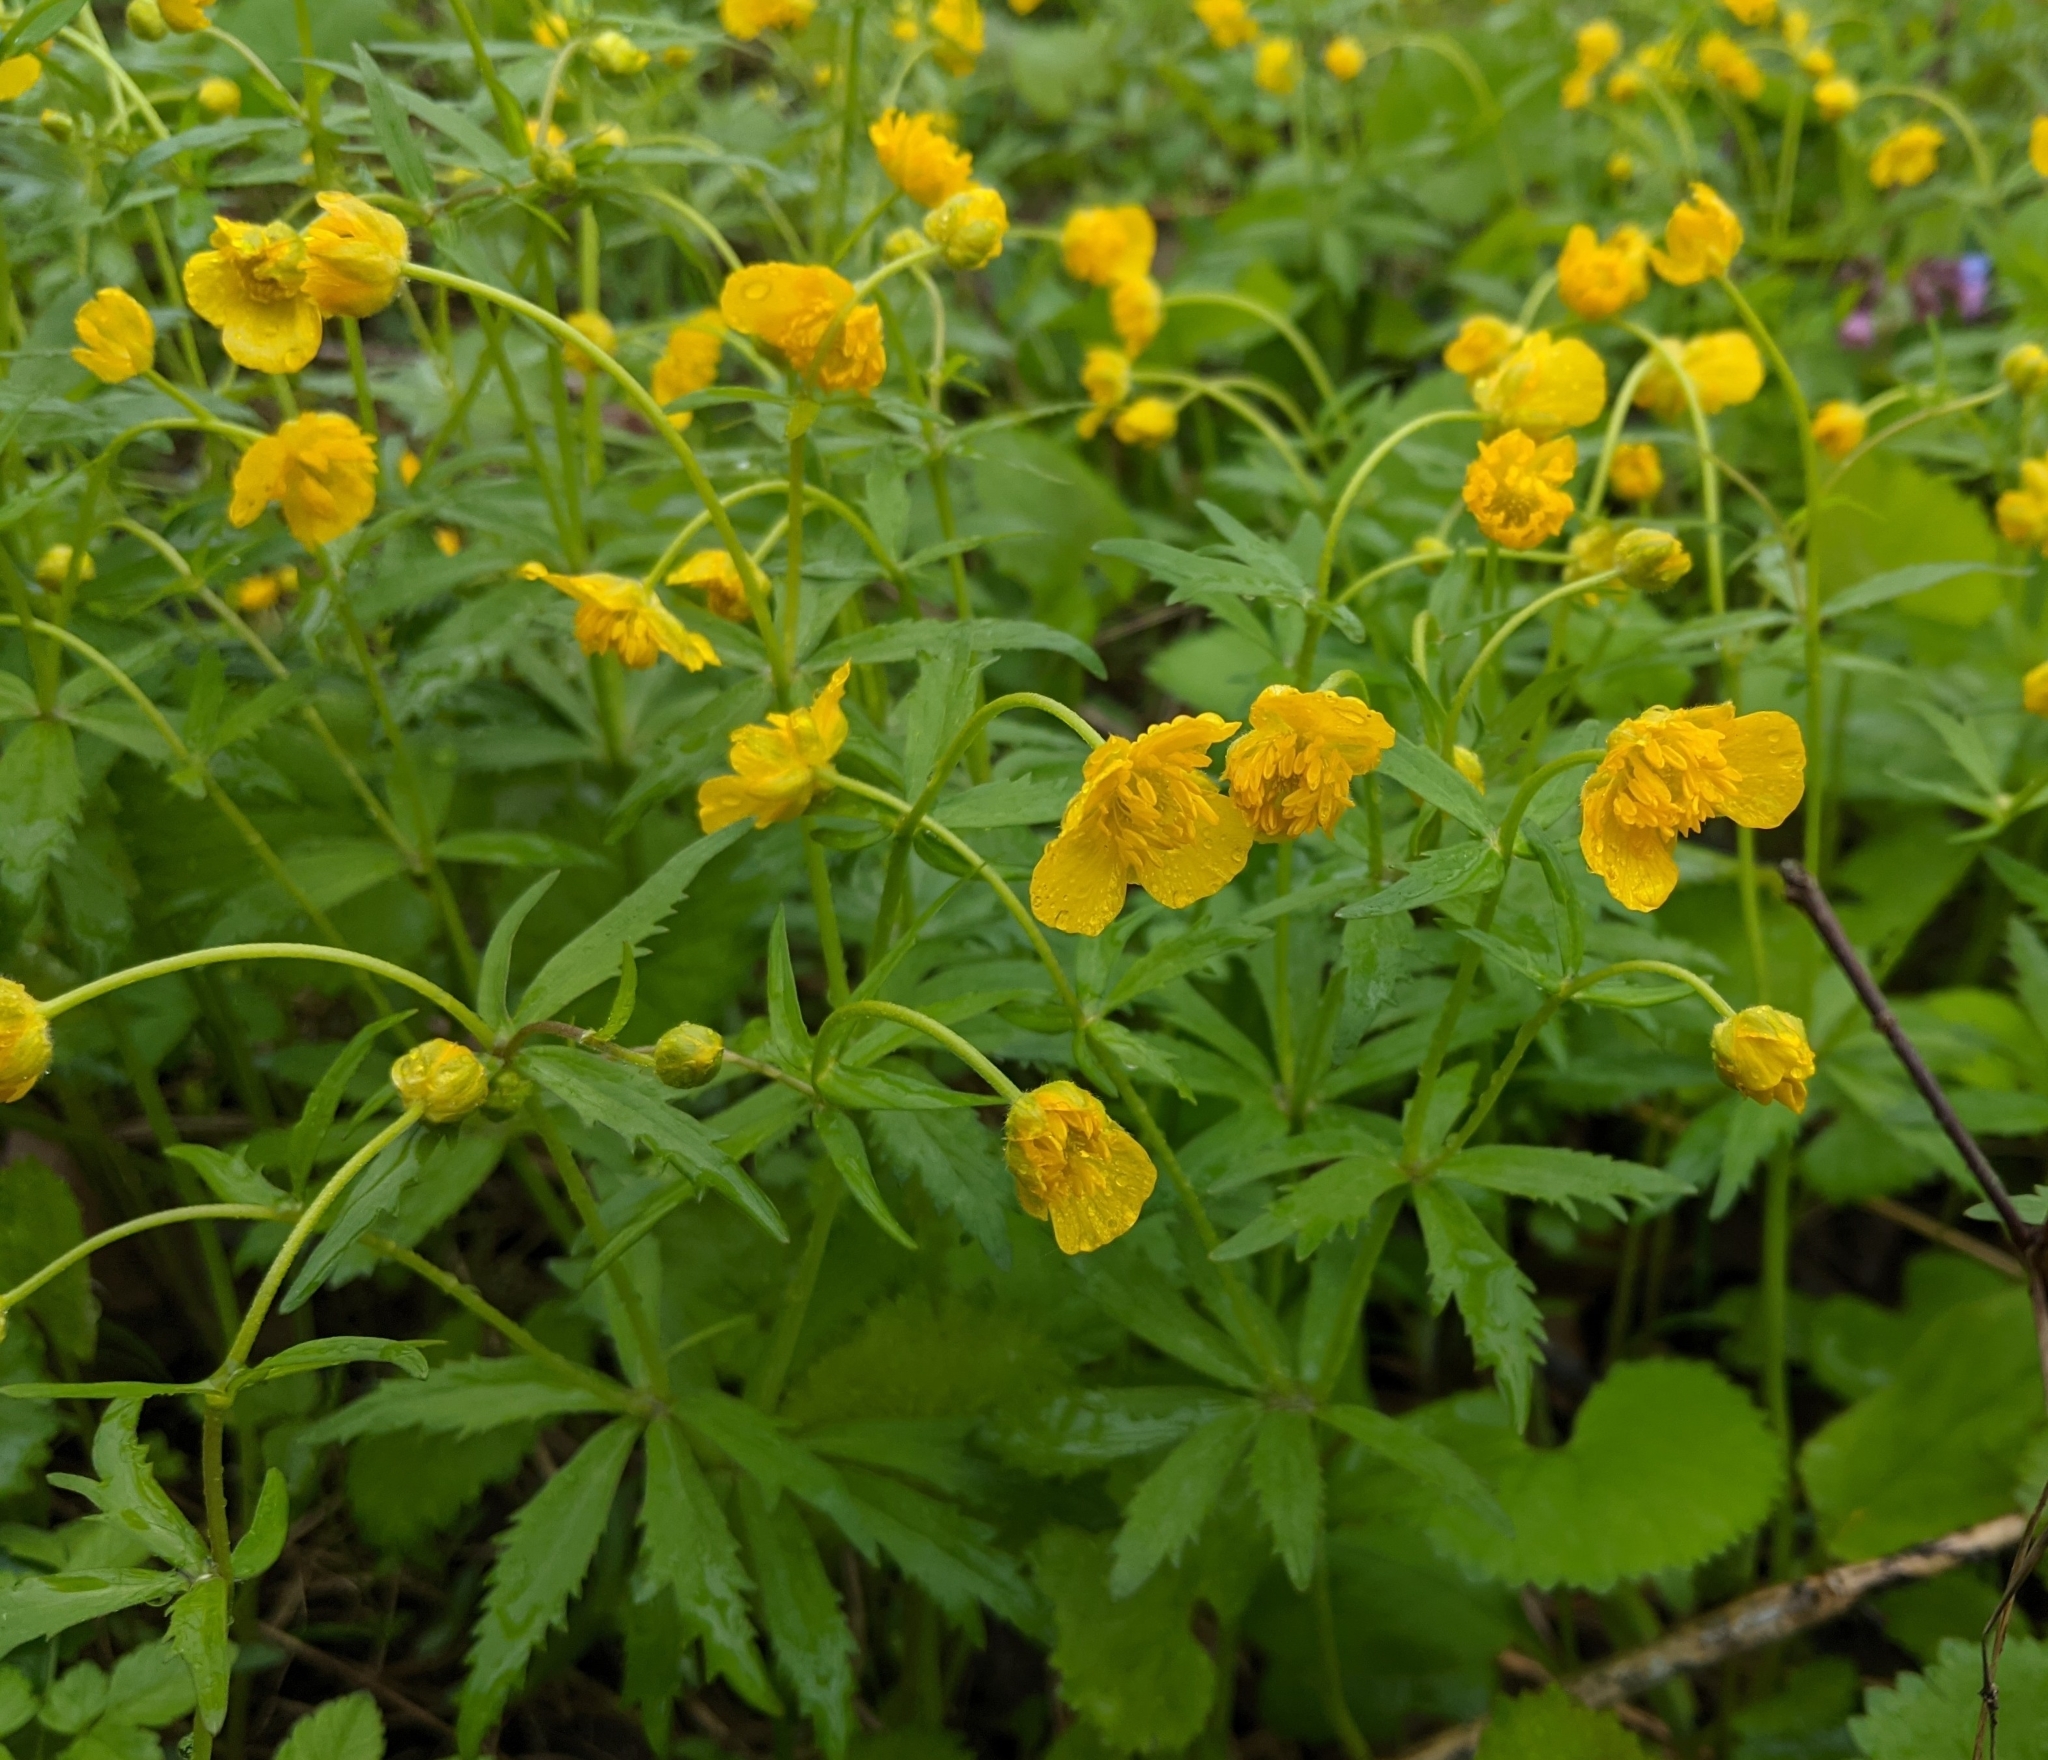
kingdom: Plantae
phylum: Tracheophyta
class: Magnoliopsida
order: Ranunculales
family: Ranunculaceae
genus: Ranunculus
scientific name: Ranunculus cassubicus
